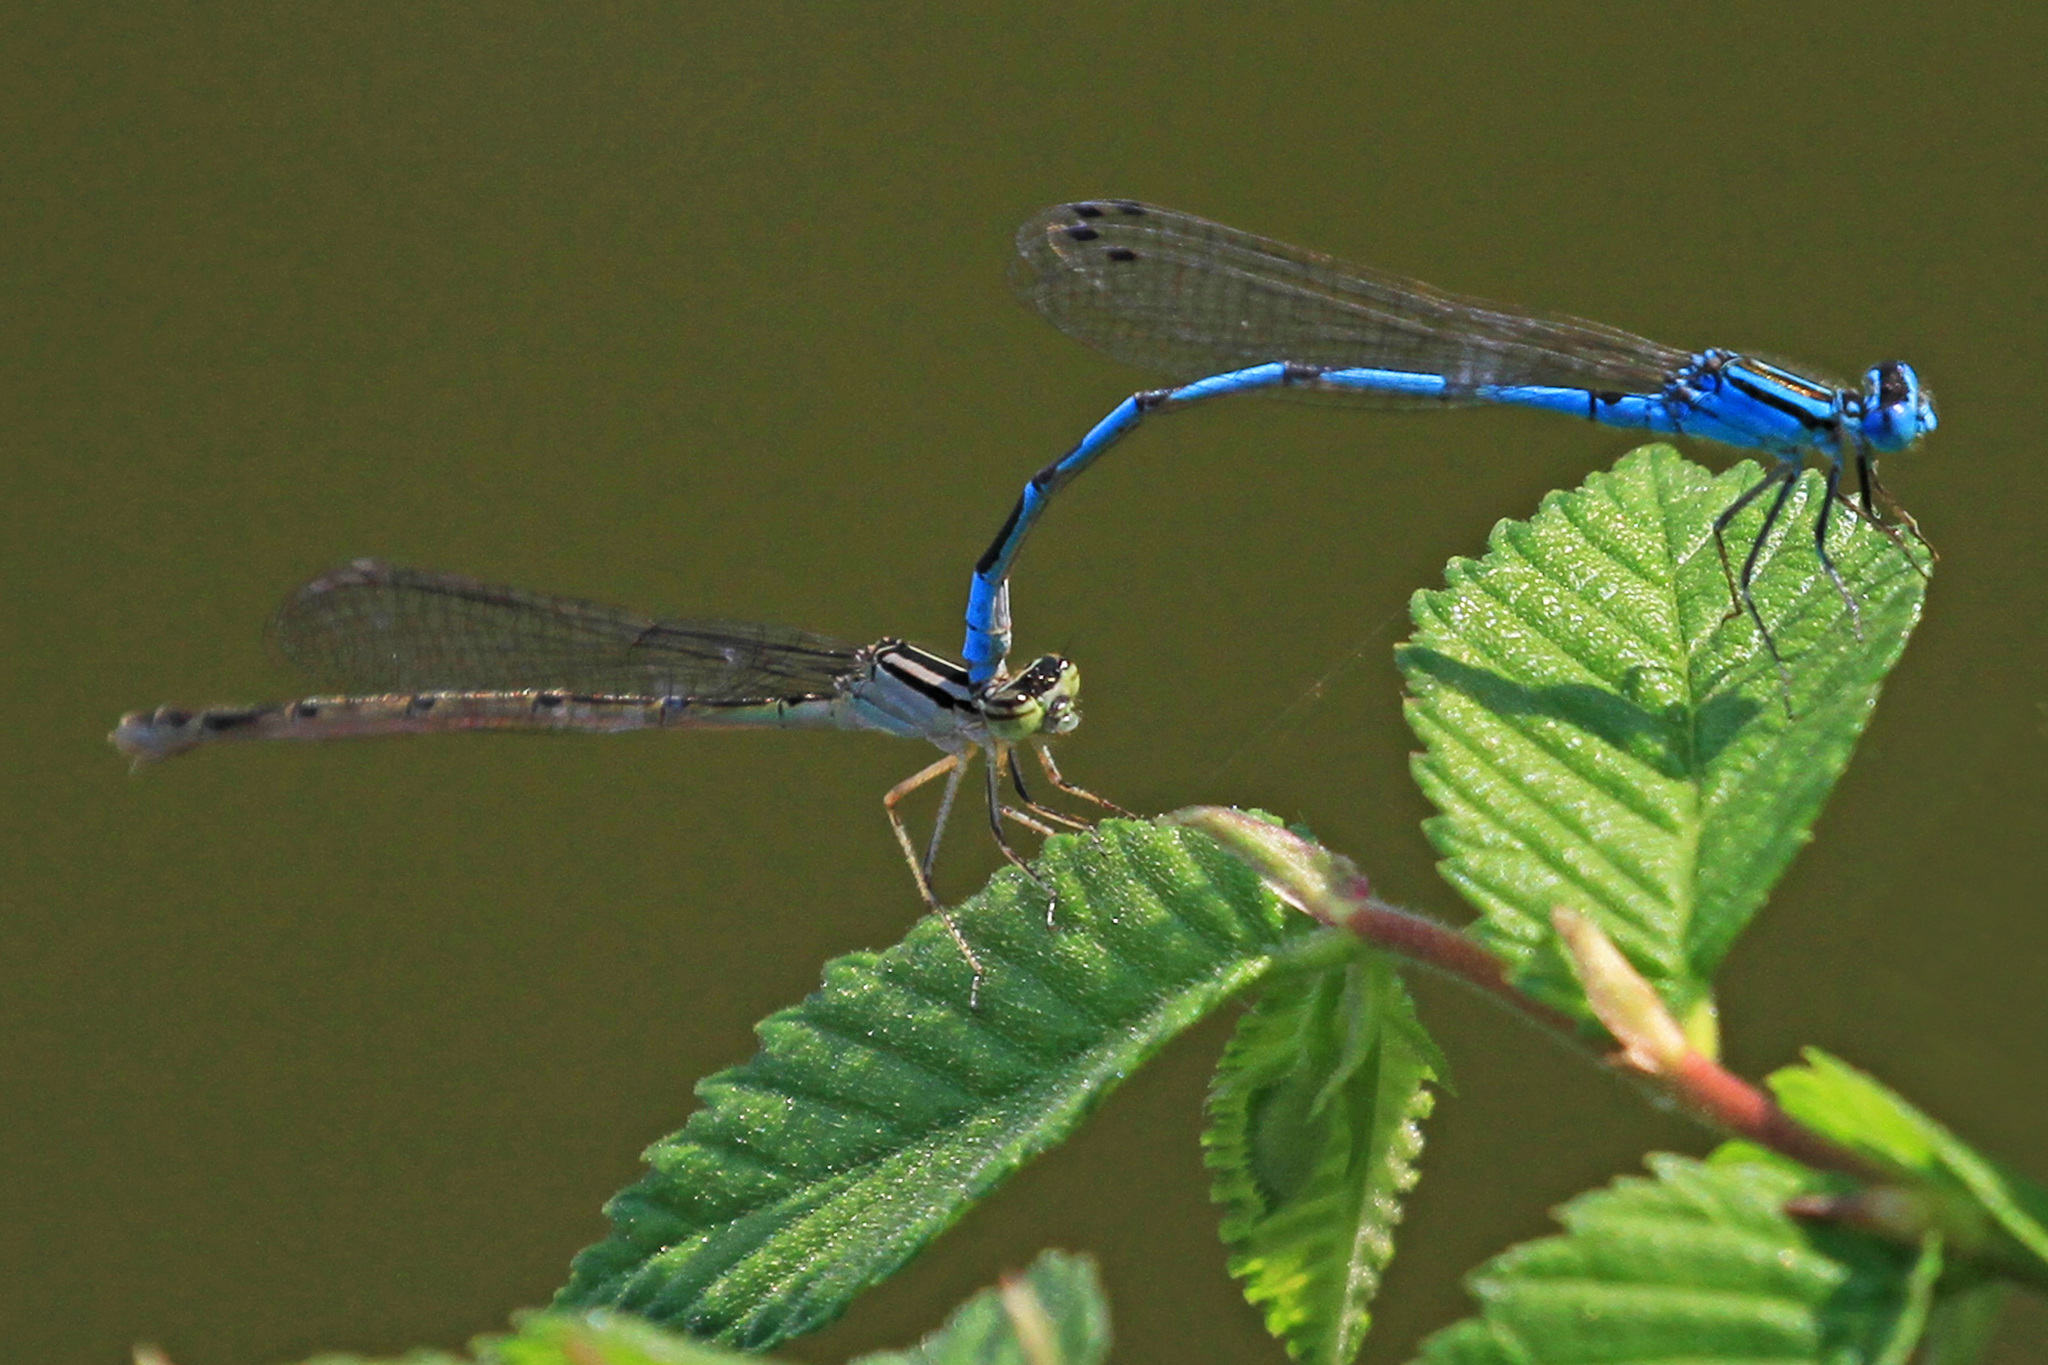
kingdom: Animalia
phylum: Arthropoda
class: Insecta
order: Odonata
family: Coenagrionidae
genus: Enallagma
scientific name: Enallagma durum
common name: Big bluet
